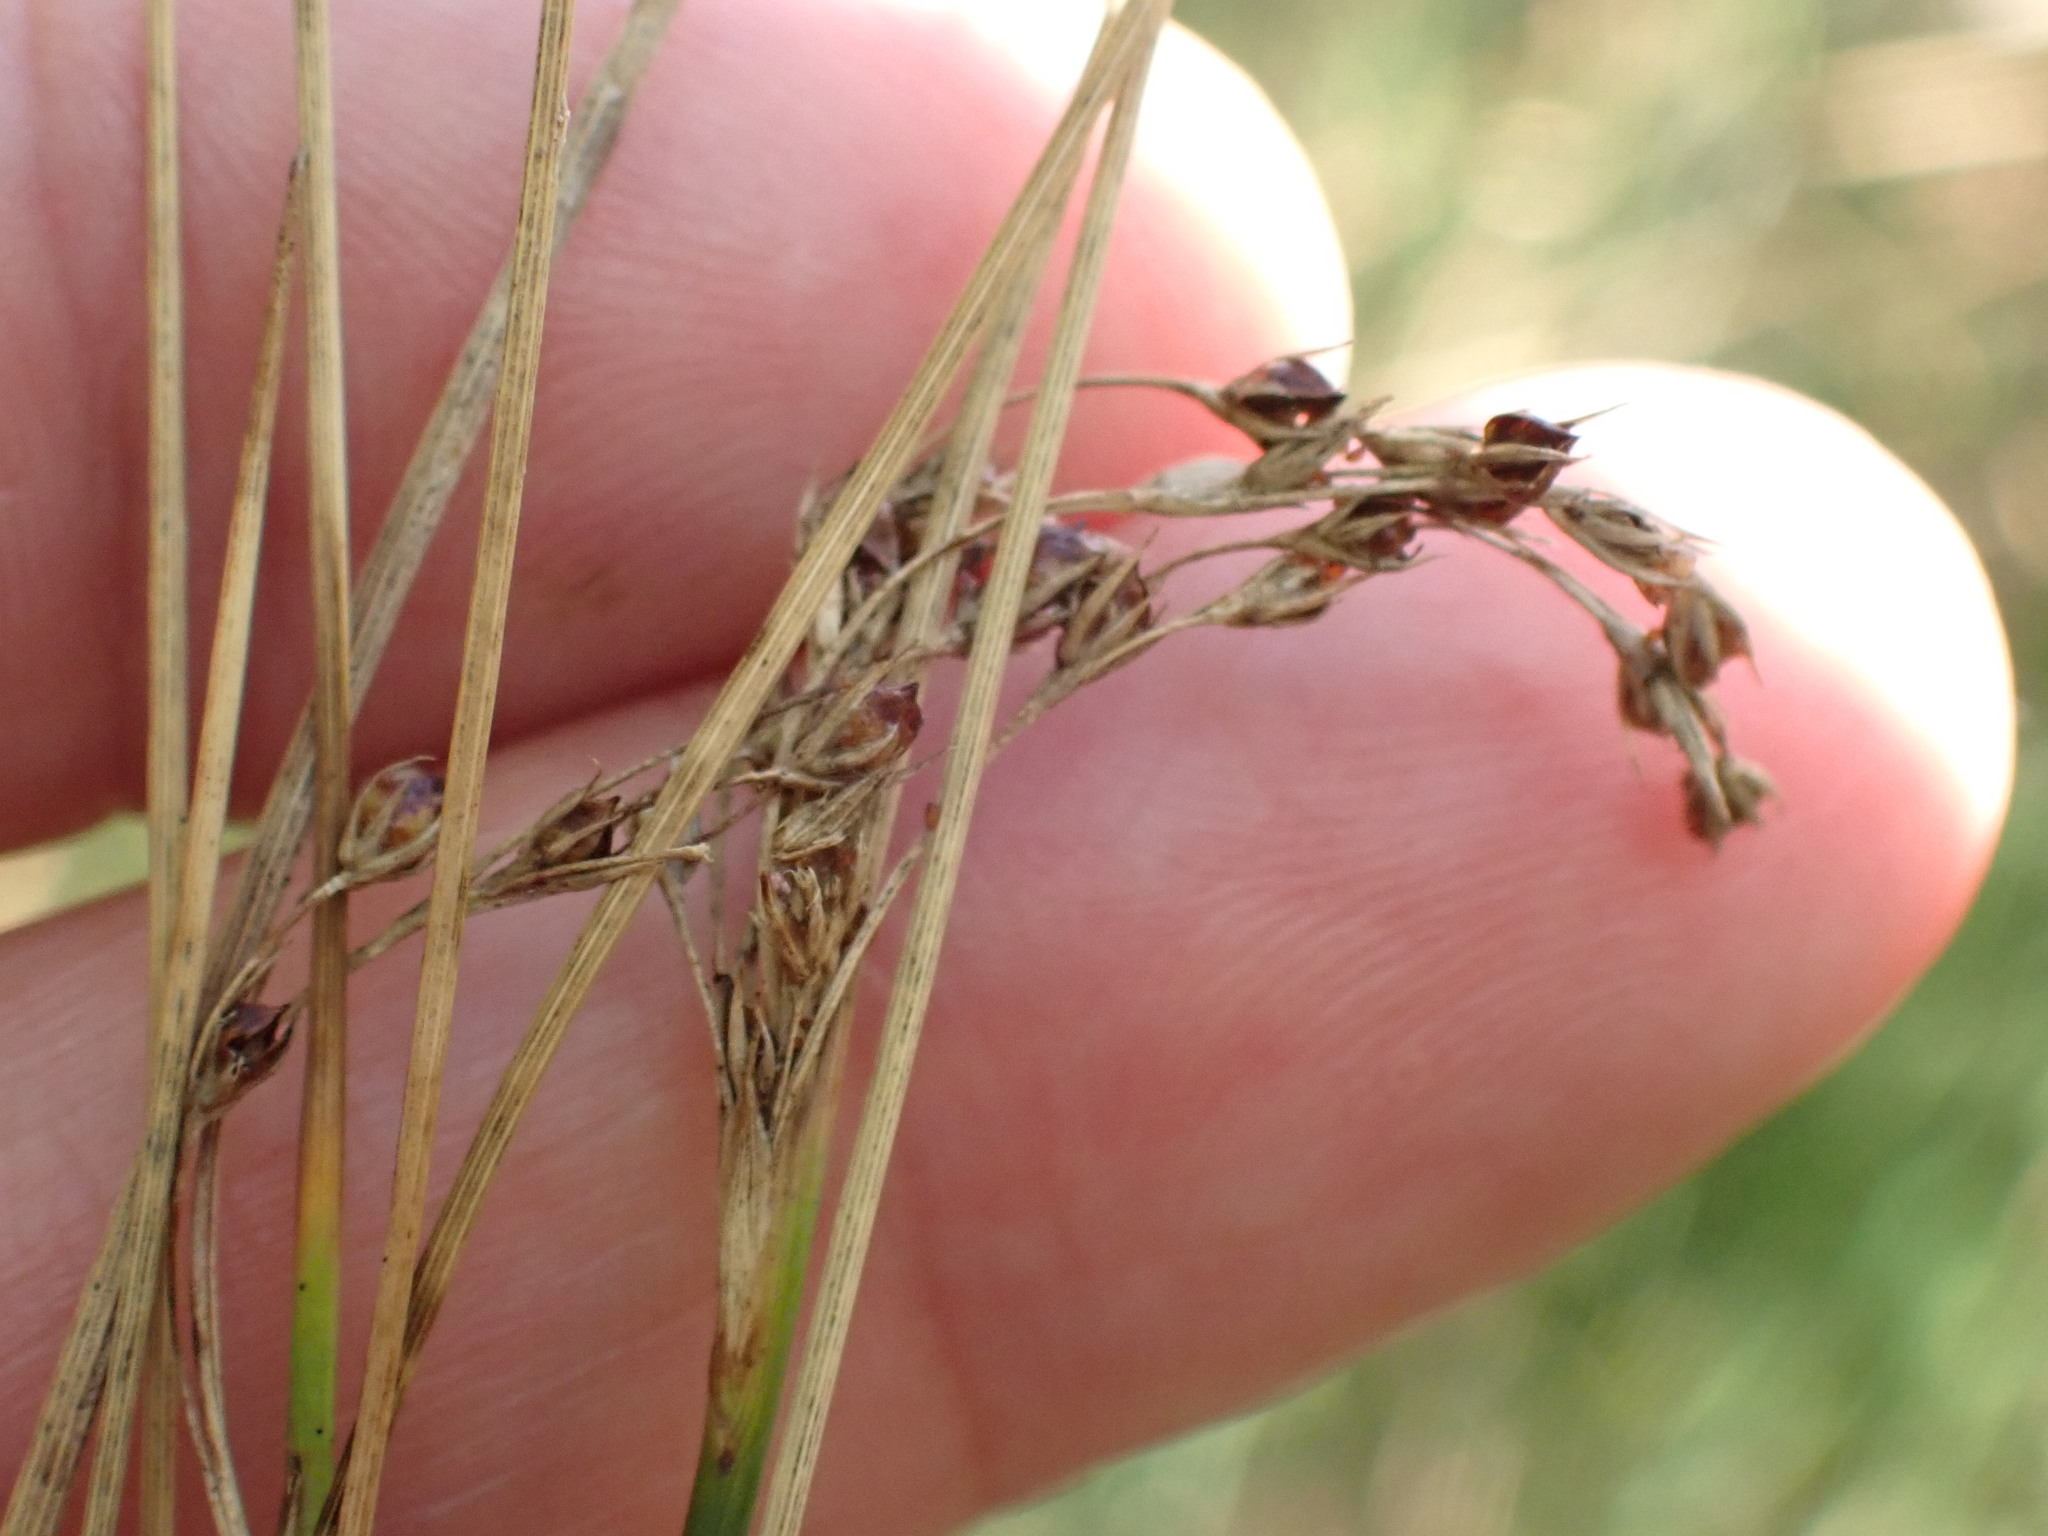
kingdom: Plantae
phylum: Tracheophyta
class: Liliopsida
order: Poales
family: Juncaceae
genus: Juncus
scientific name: Juncus inflexus
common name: Hard rush
